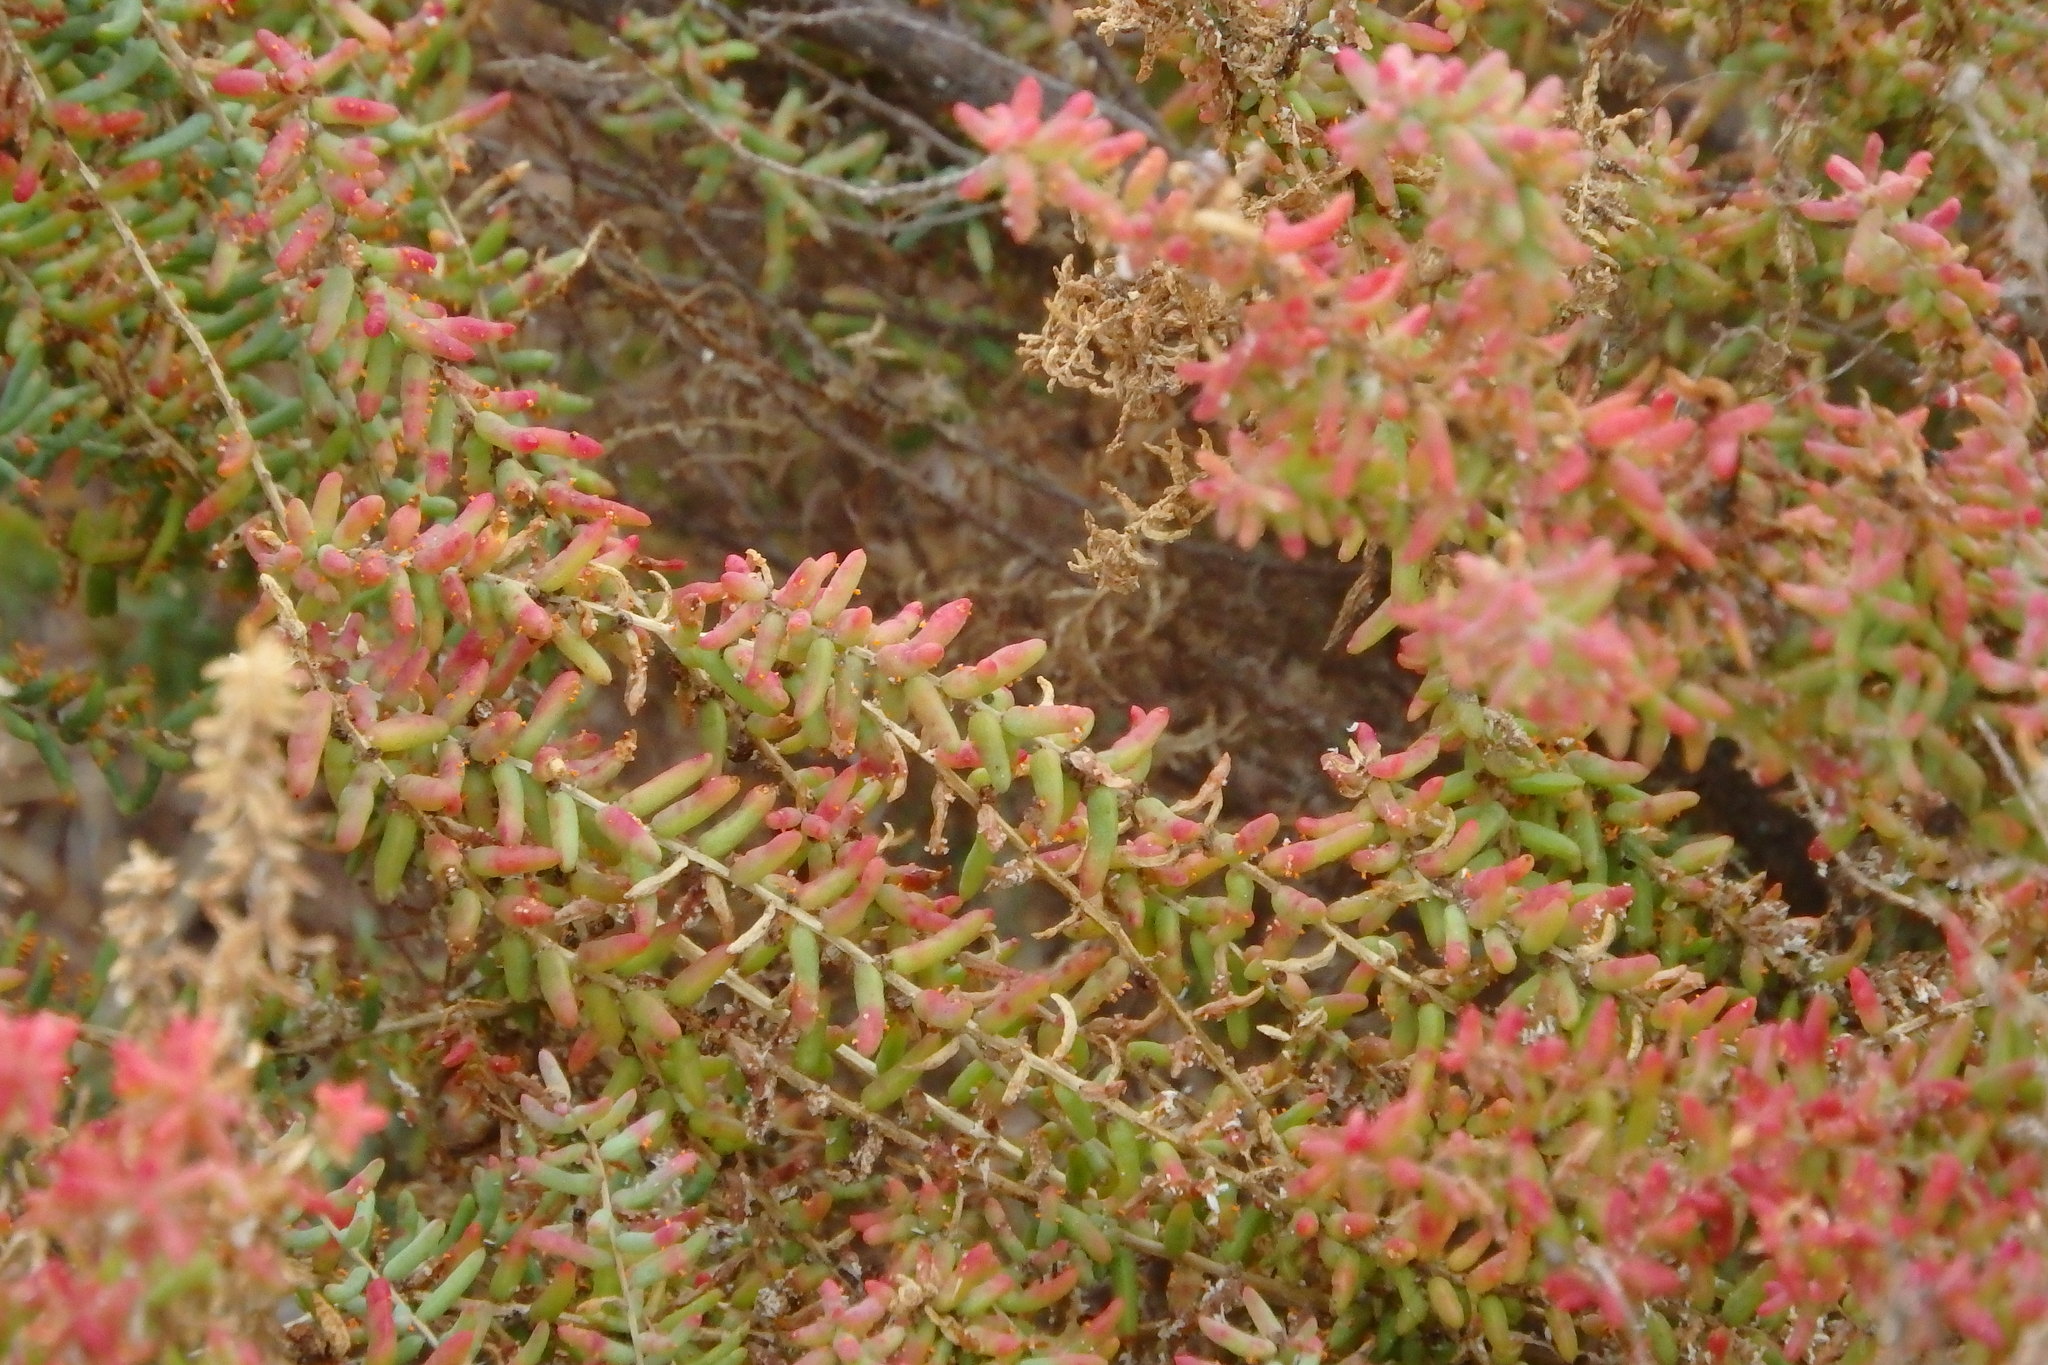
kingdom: Plantae
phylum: Tracheophyta
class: Magnoliopsida
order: Caryophyllales
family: Amaranthaceae
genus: Suaeda
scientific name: Suaeda vera
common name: Shrubby sea-blite
